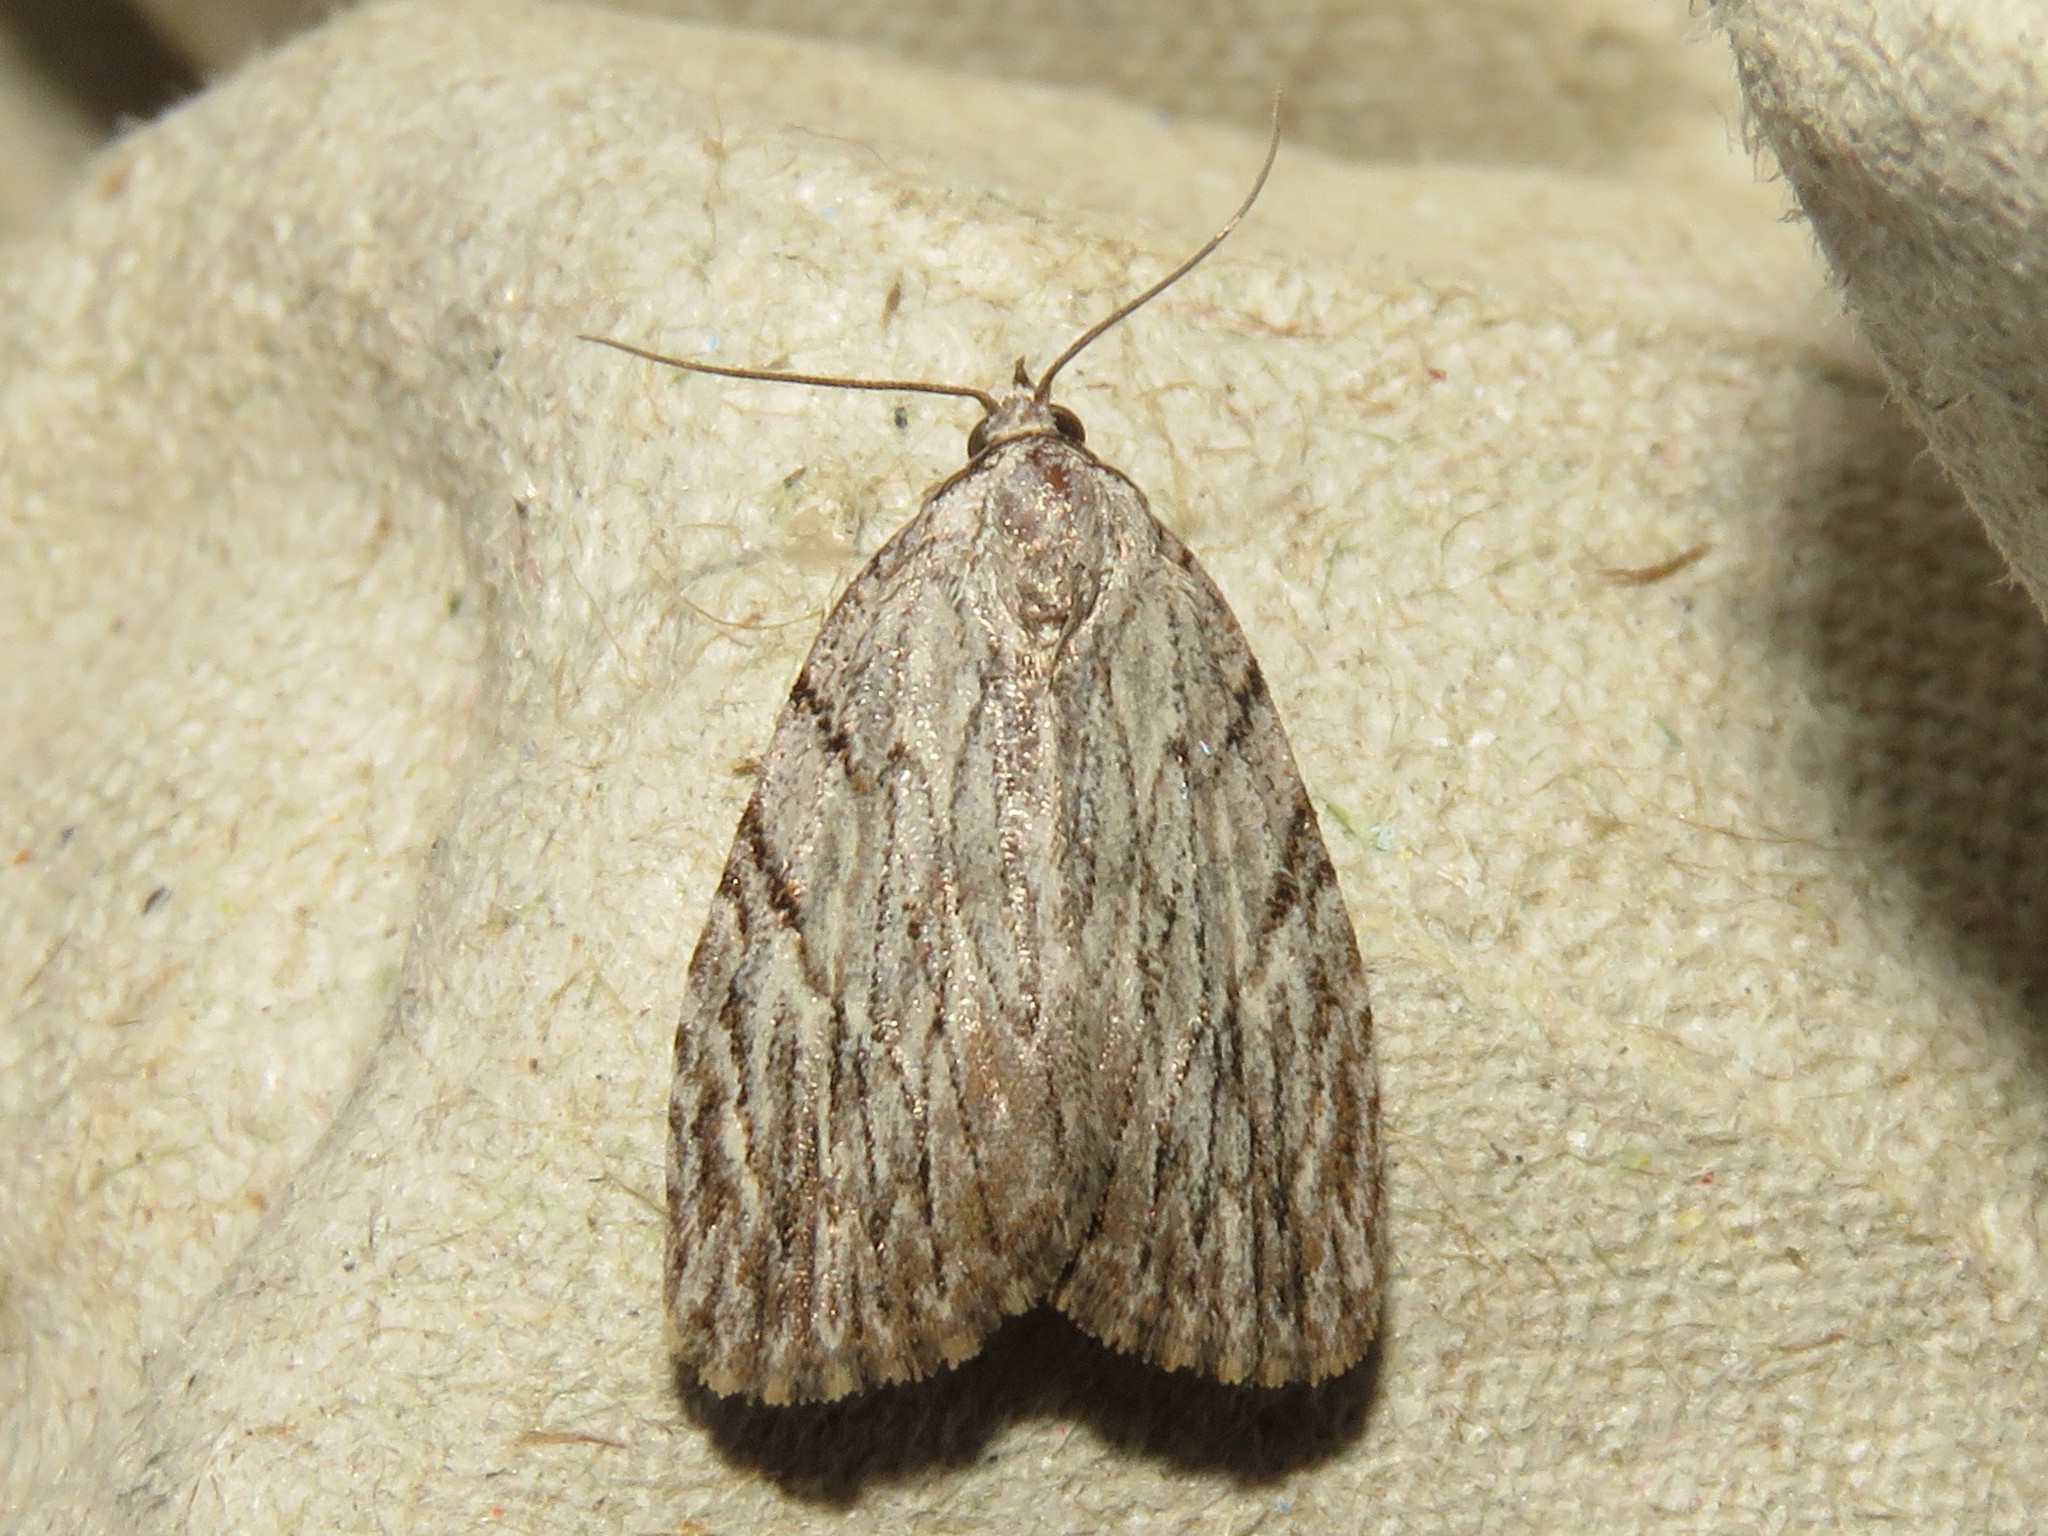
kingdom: Animalia
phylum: Arthropoda
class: Insecta
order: Lepidoptera
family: Noctuidae
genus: Balsa
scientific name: Balsa tristrigella
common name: Three-lined balsa moth
